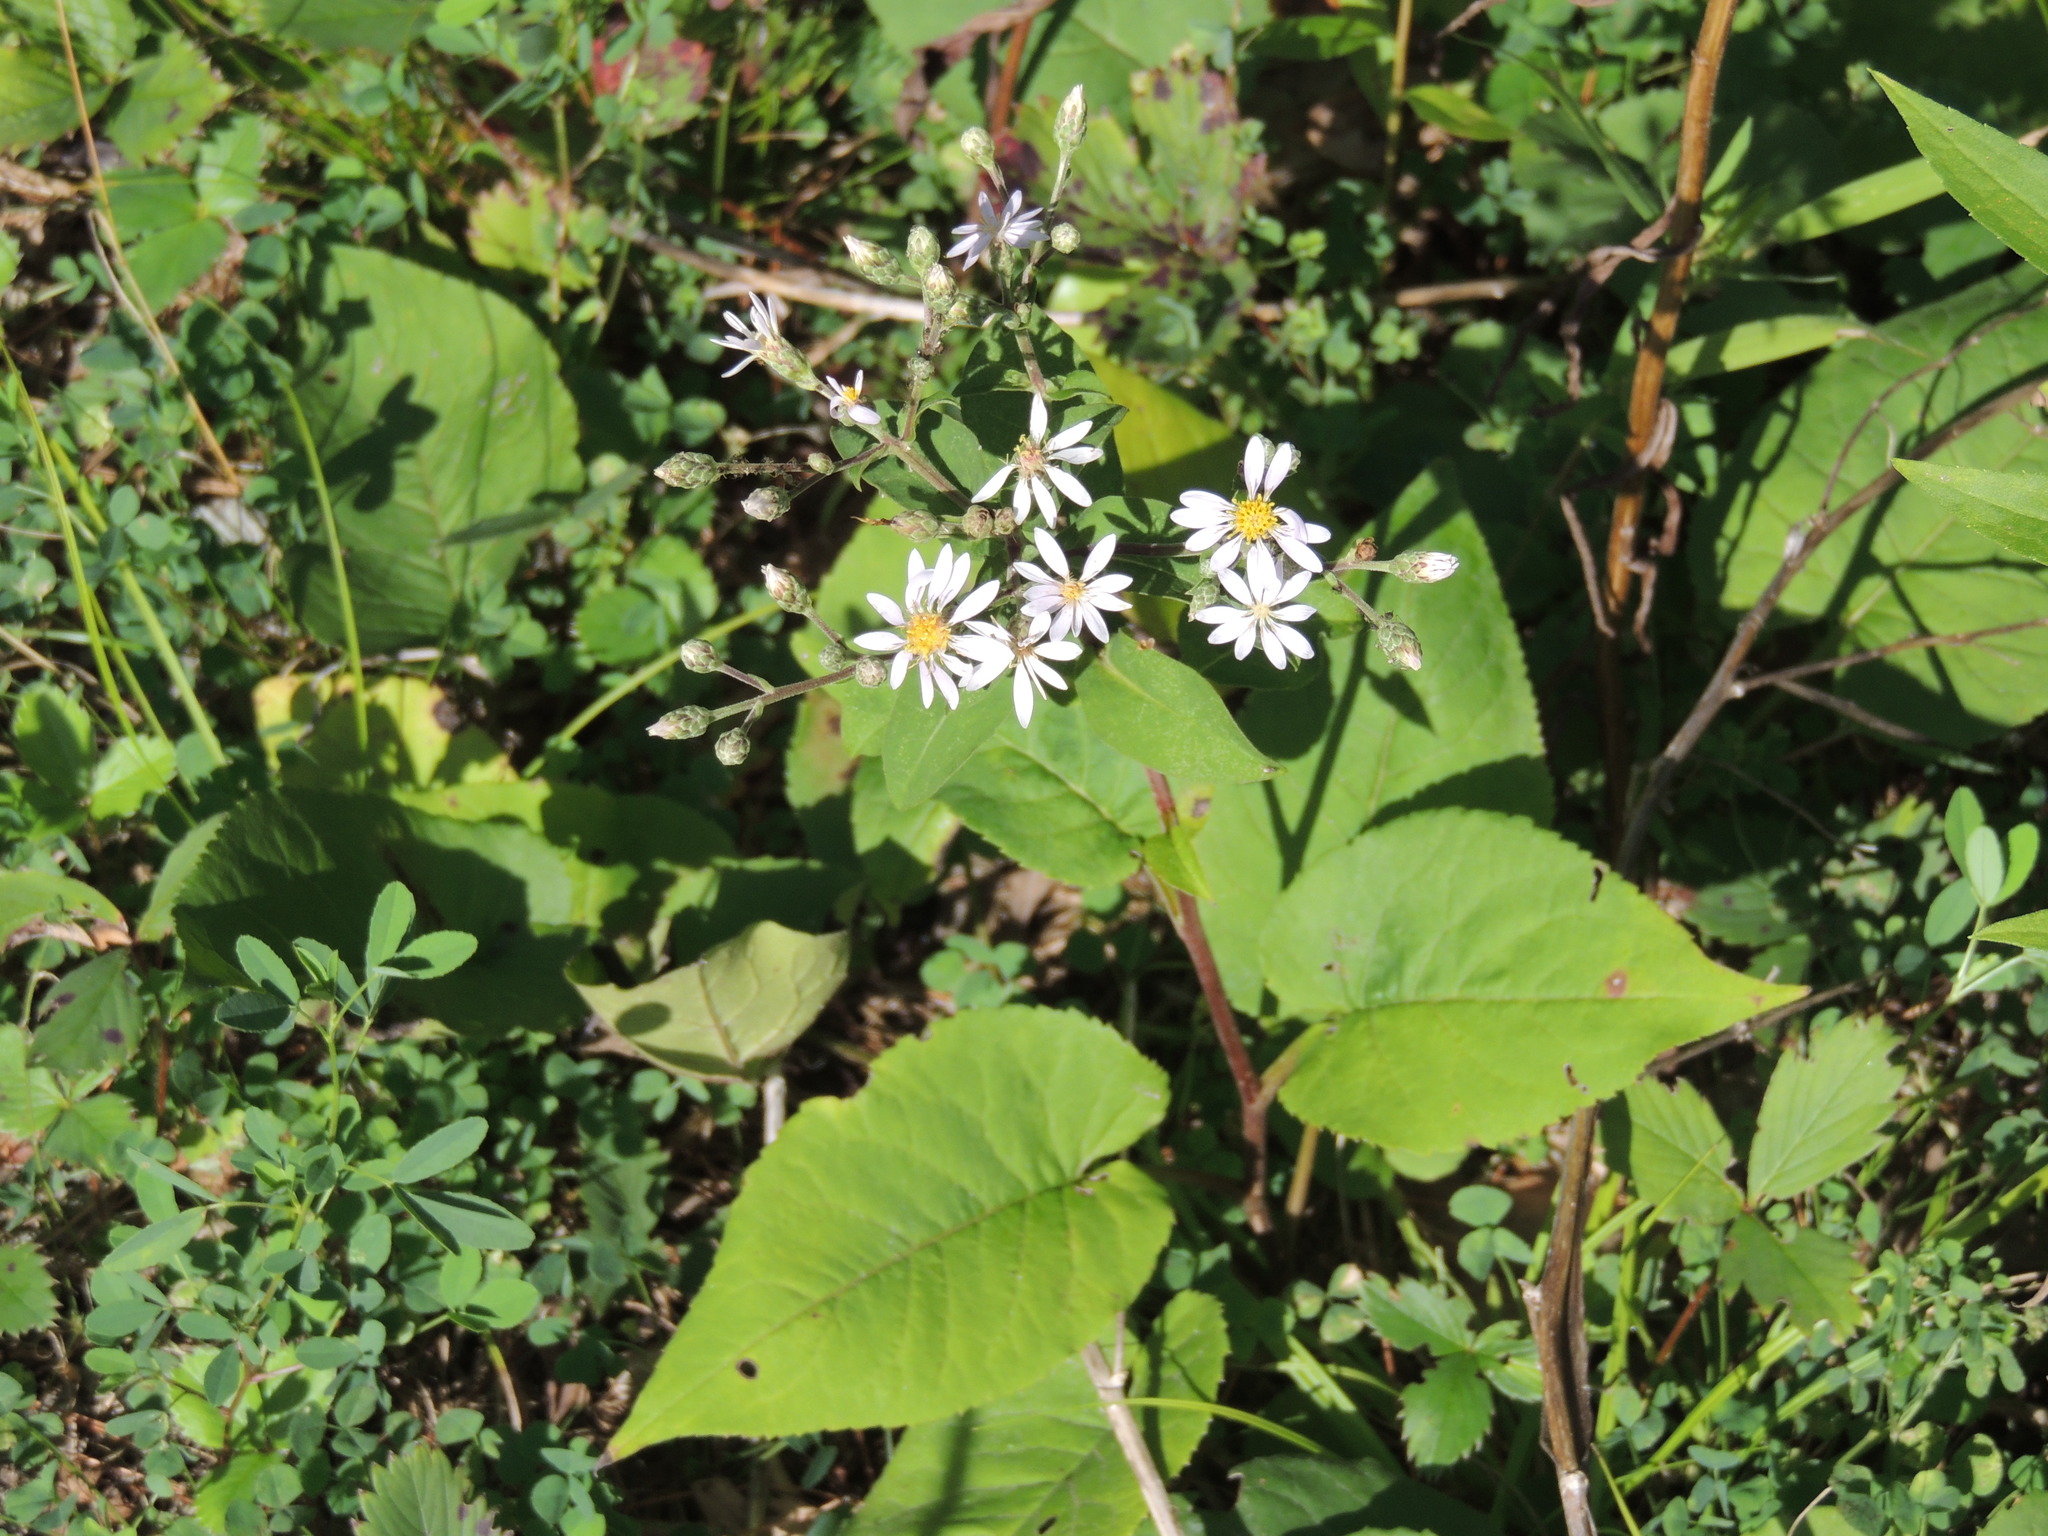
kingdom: Plantae
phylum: Tracheophyta
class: Magnoliopsida
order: Asterales
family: Asteraceae
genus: Eurybia
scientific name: Eurybia macrophylla
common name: Big-leaved aster
